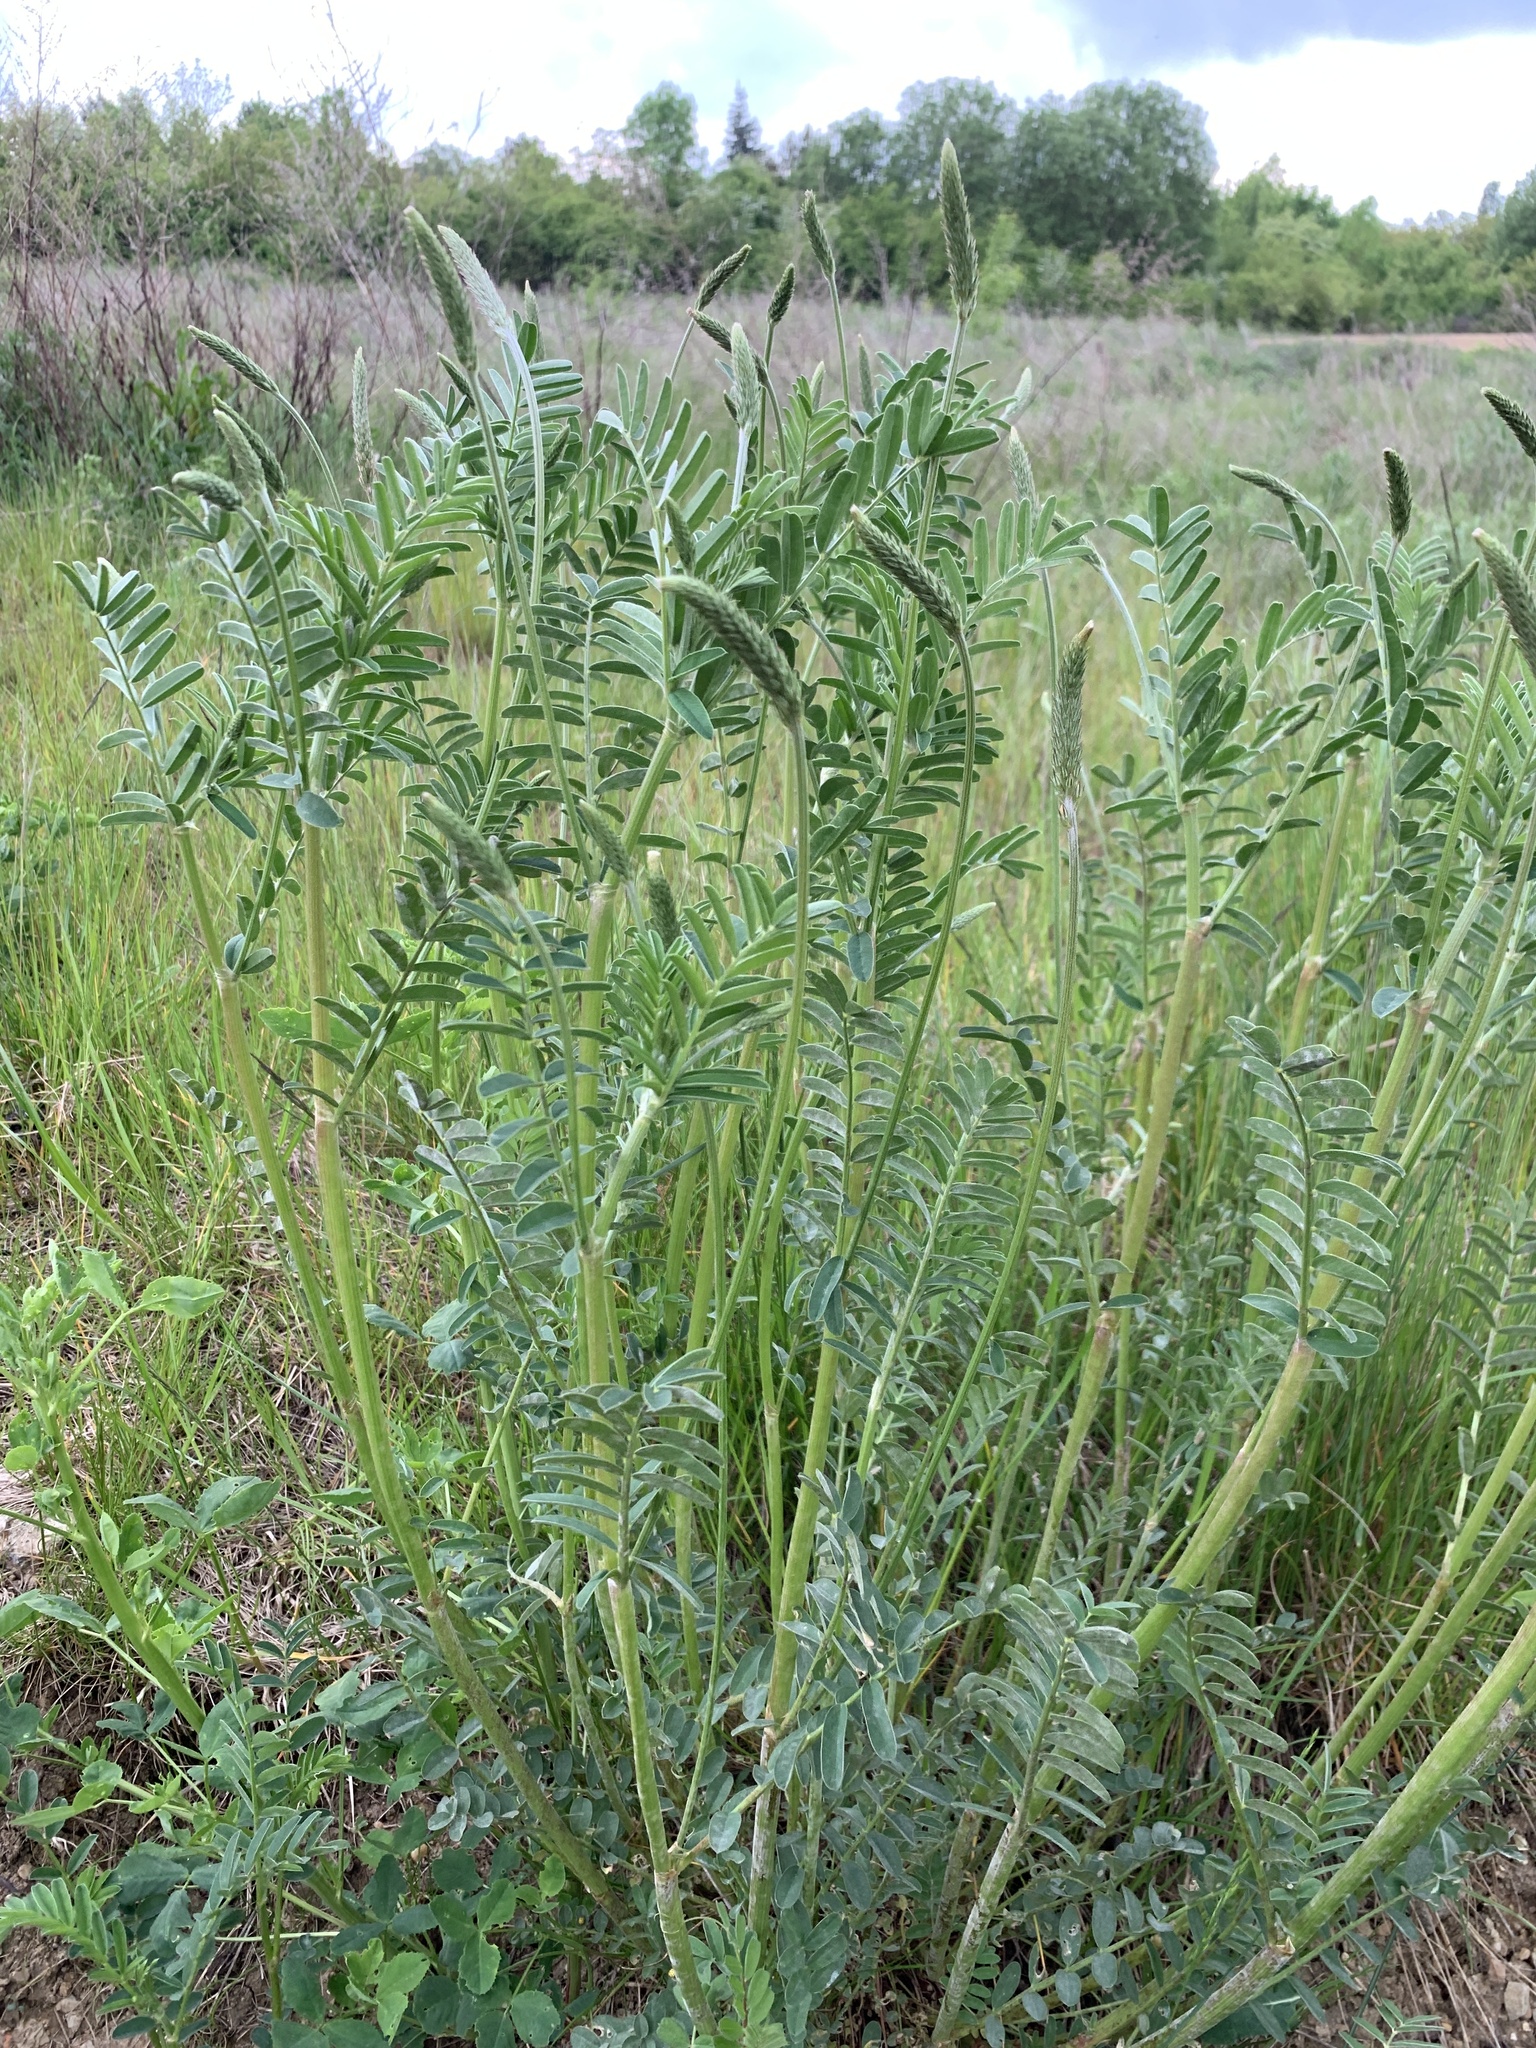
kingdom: Plantae
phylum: Tracheophyta
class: Magnoliopsida
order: Fabales
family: Fabaceae
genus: Onobrychis
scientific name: Onobrychis viciifolia
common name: Sainfoin
